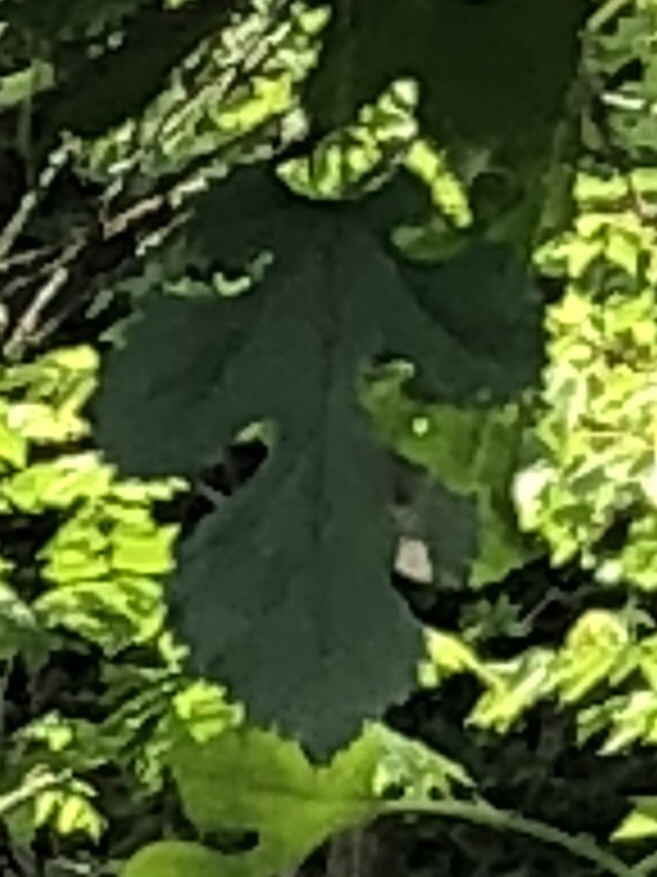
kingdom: Plantae
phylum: Tracheophyta
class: Magnoliopsida
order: Rosales
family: Moraceae
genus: Morus
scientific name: Morus alba
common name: White mulberry
